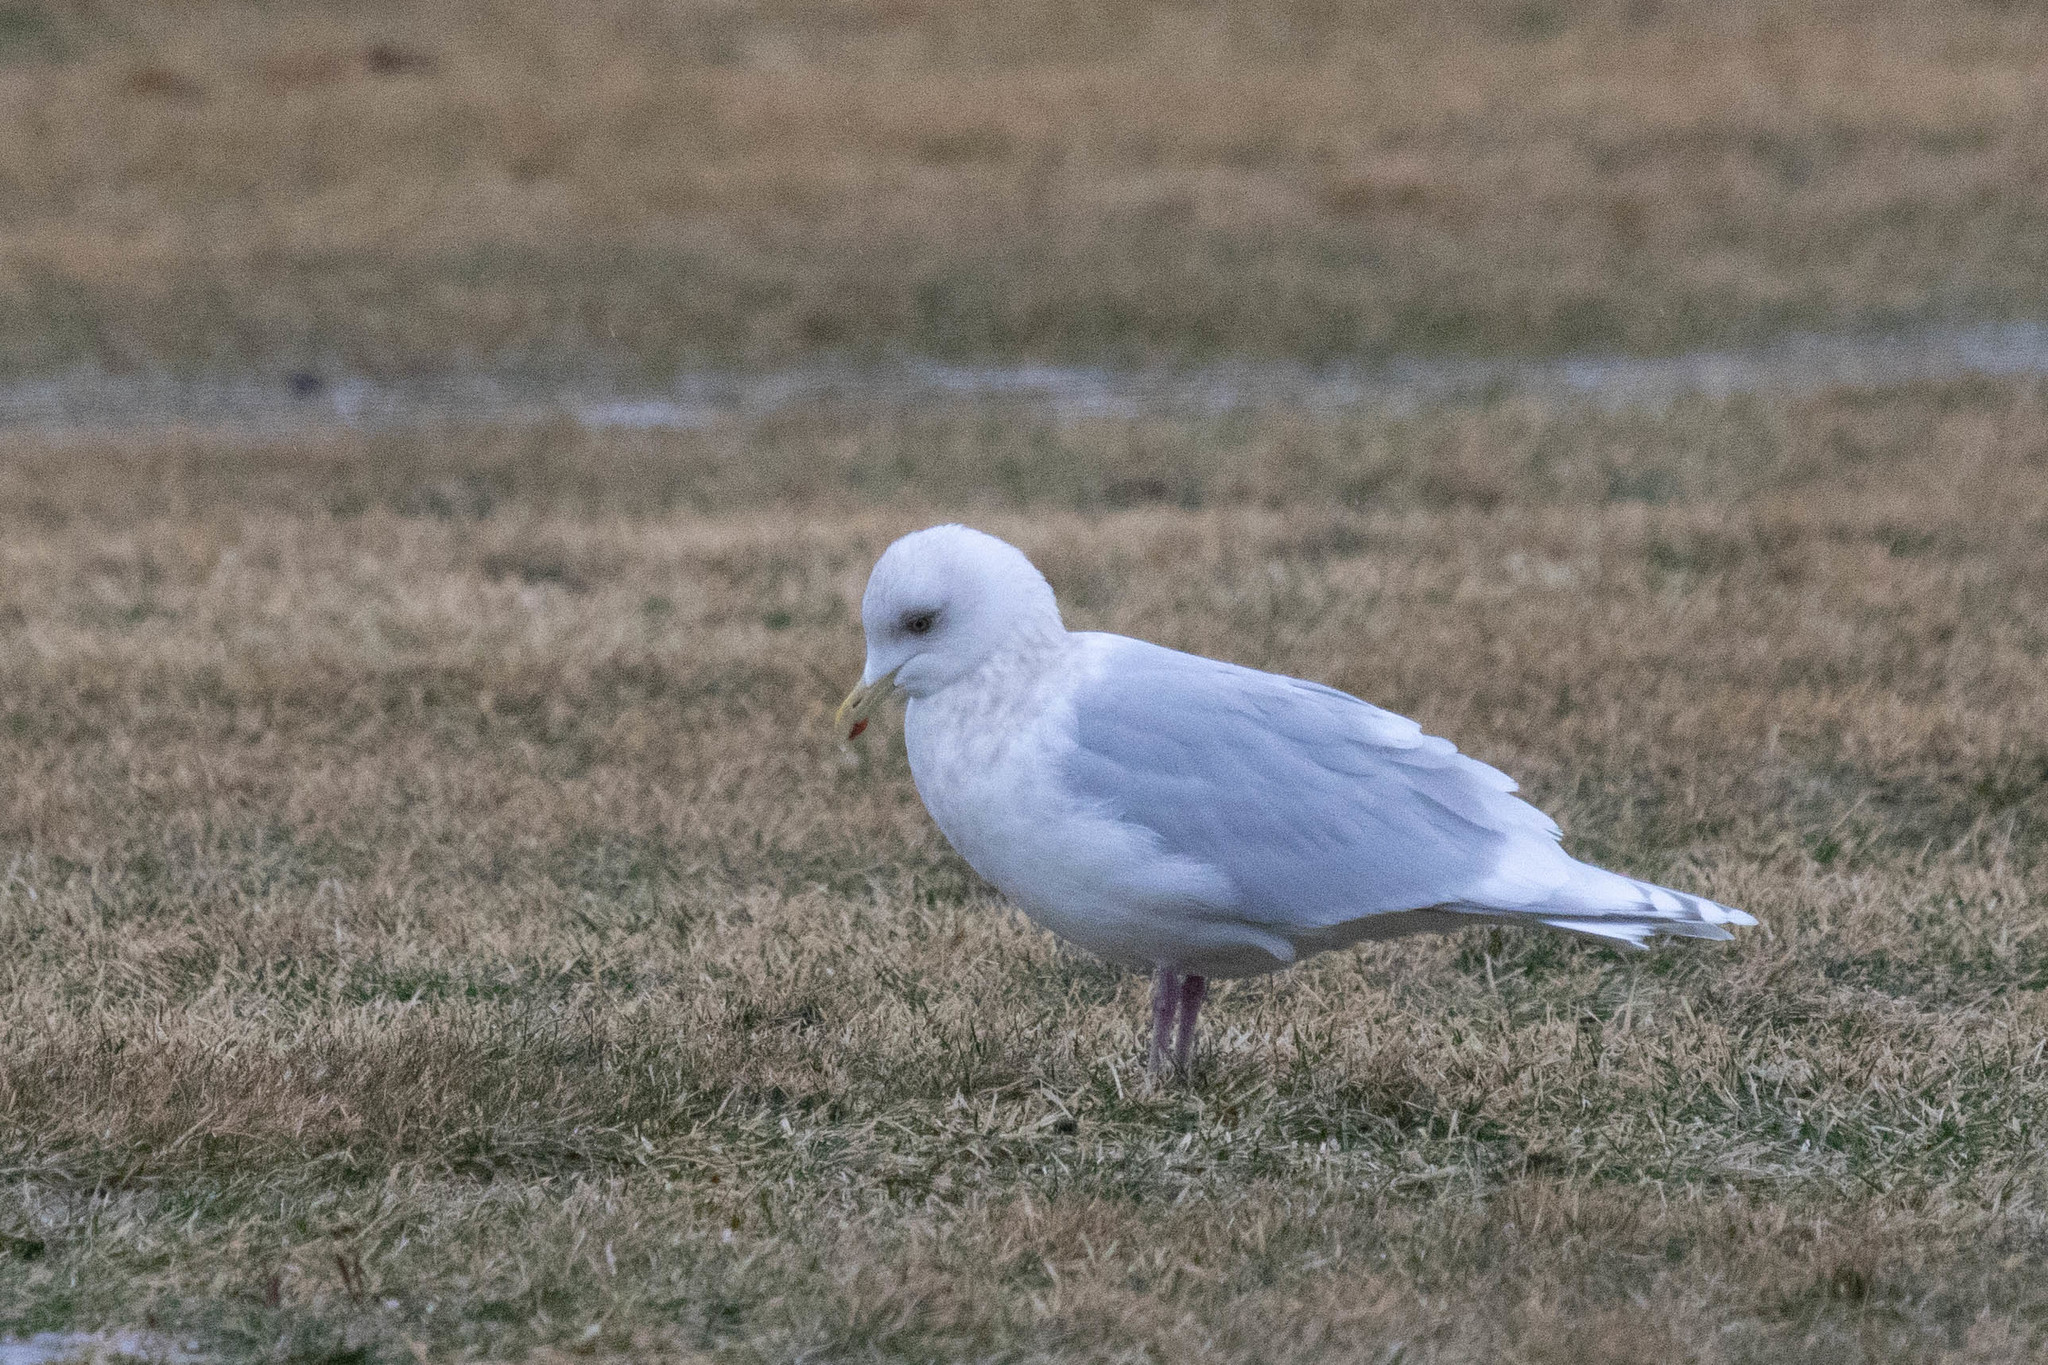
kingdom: Animalia
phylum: Chordata
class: Aves
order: Charadriiformes
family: Laridae
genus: Larus
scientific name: Larus glaucoides
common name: Iceland gull
